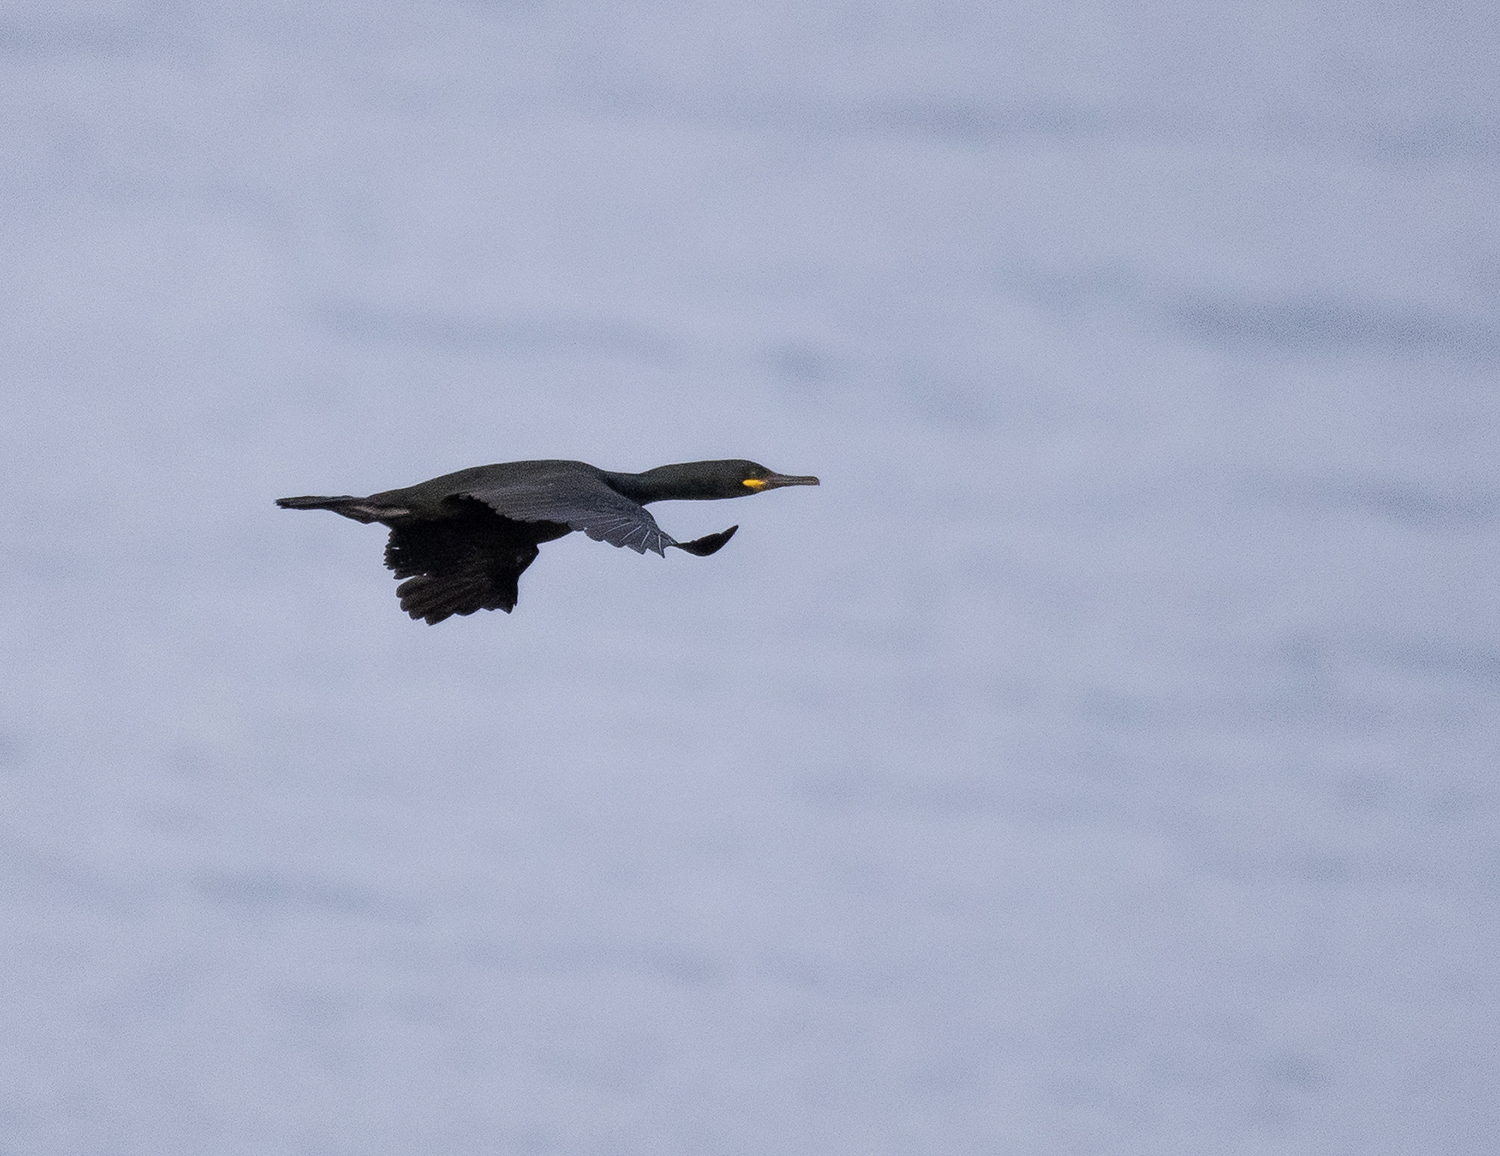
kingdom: Animalia
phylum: Chordata
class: Aves
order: Suliformes
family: Phalacrocoracidae
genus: Phalacrocorax
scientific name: Phalacrocorax aristotelis
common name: European shag
